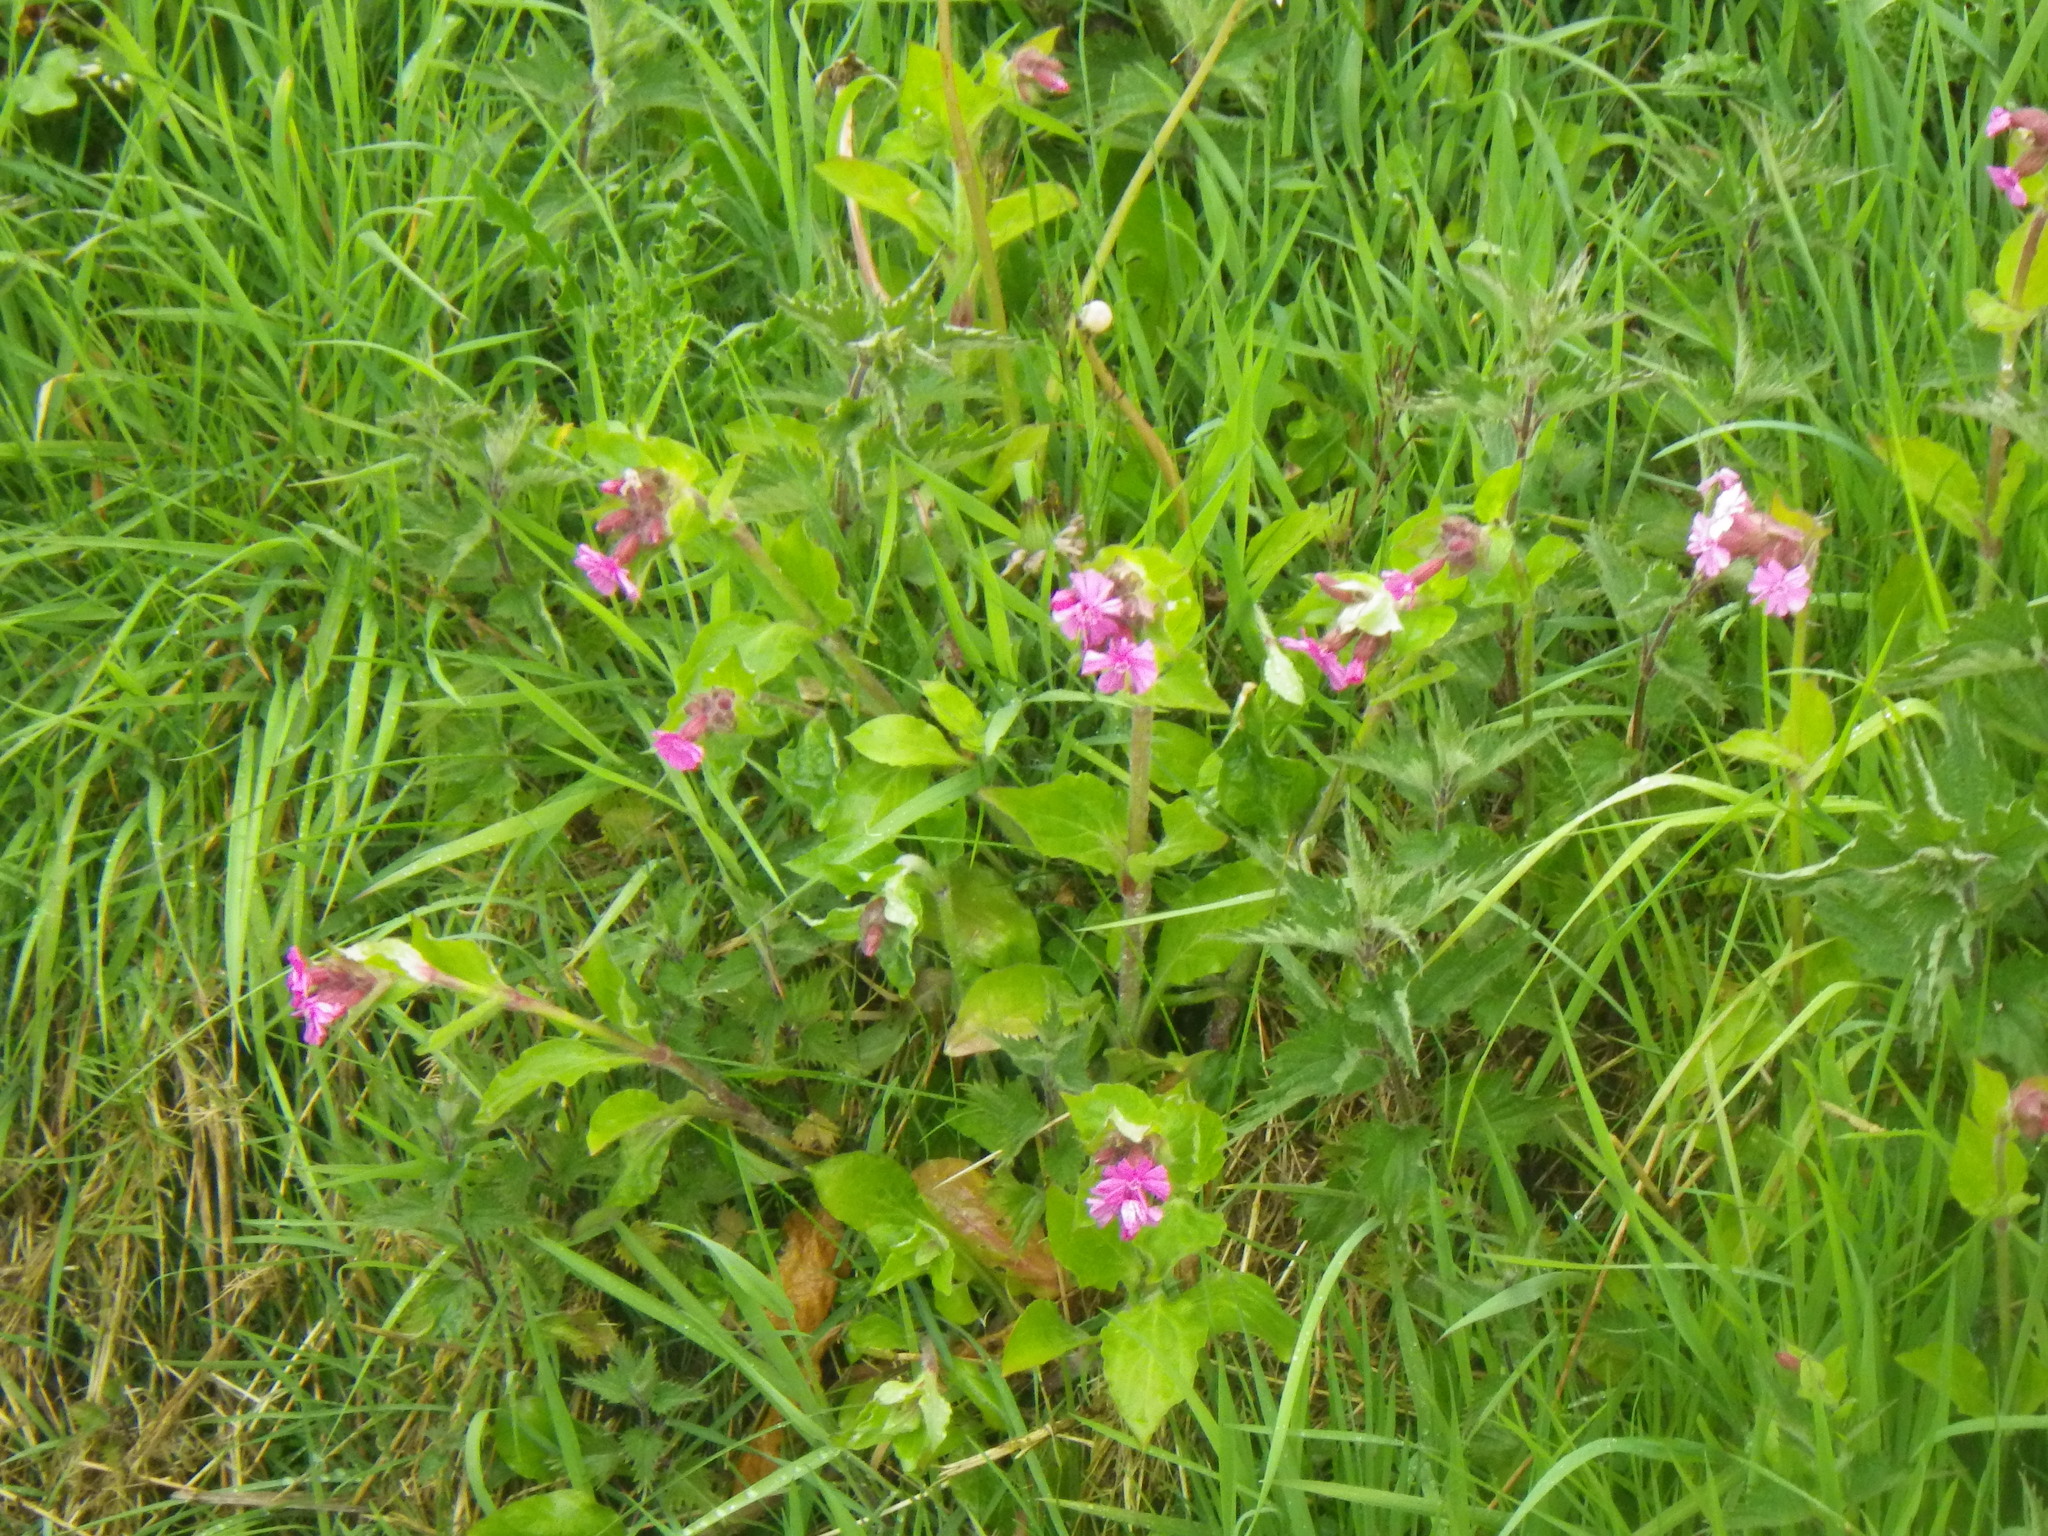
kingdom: Plantae
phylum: Tracheophyta
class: Magnoliopsida
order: Caryophyllales
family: Caryophyllaceae
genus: Silene
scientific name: Silene dioica
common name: Red campion
